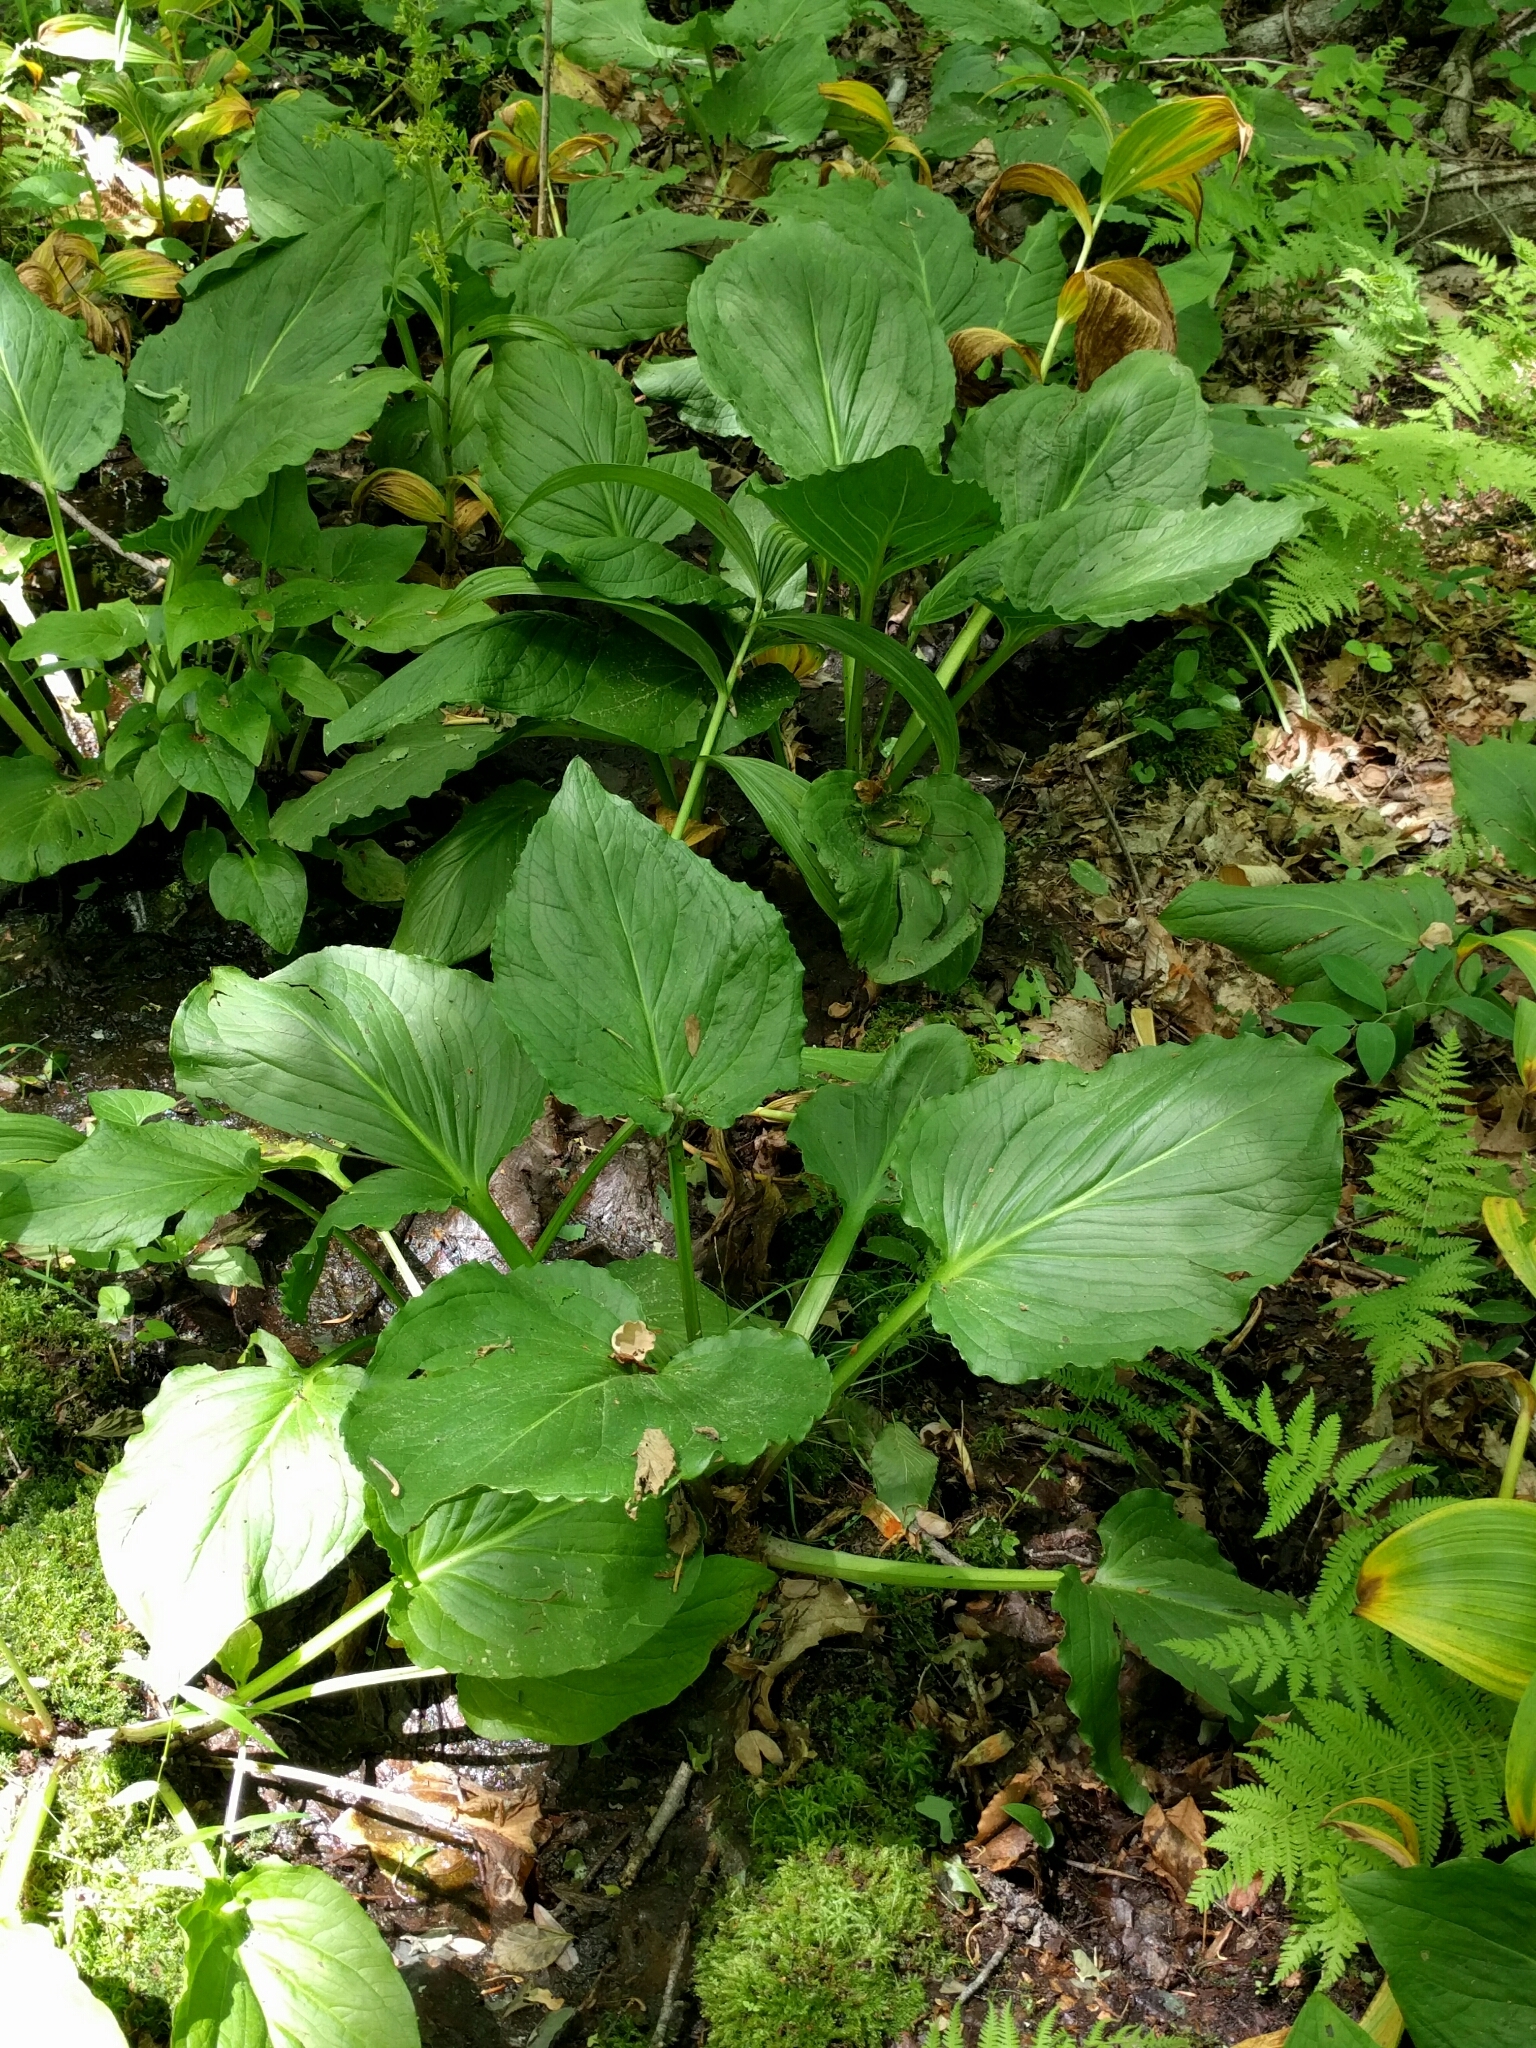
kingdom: Plantae
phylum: Tracheophyta
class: Liliopsida
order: Alismatales
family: Araceae
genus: Symplocarpus
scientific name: Symplocarpus foetidus
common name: Eastern skunk cabbage
